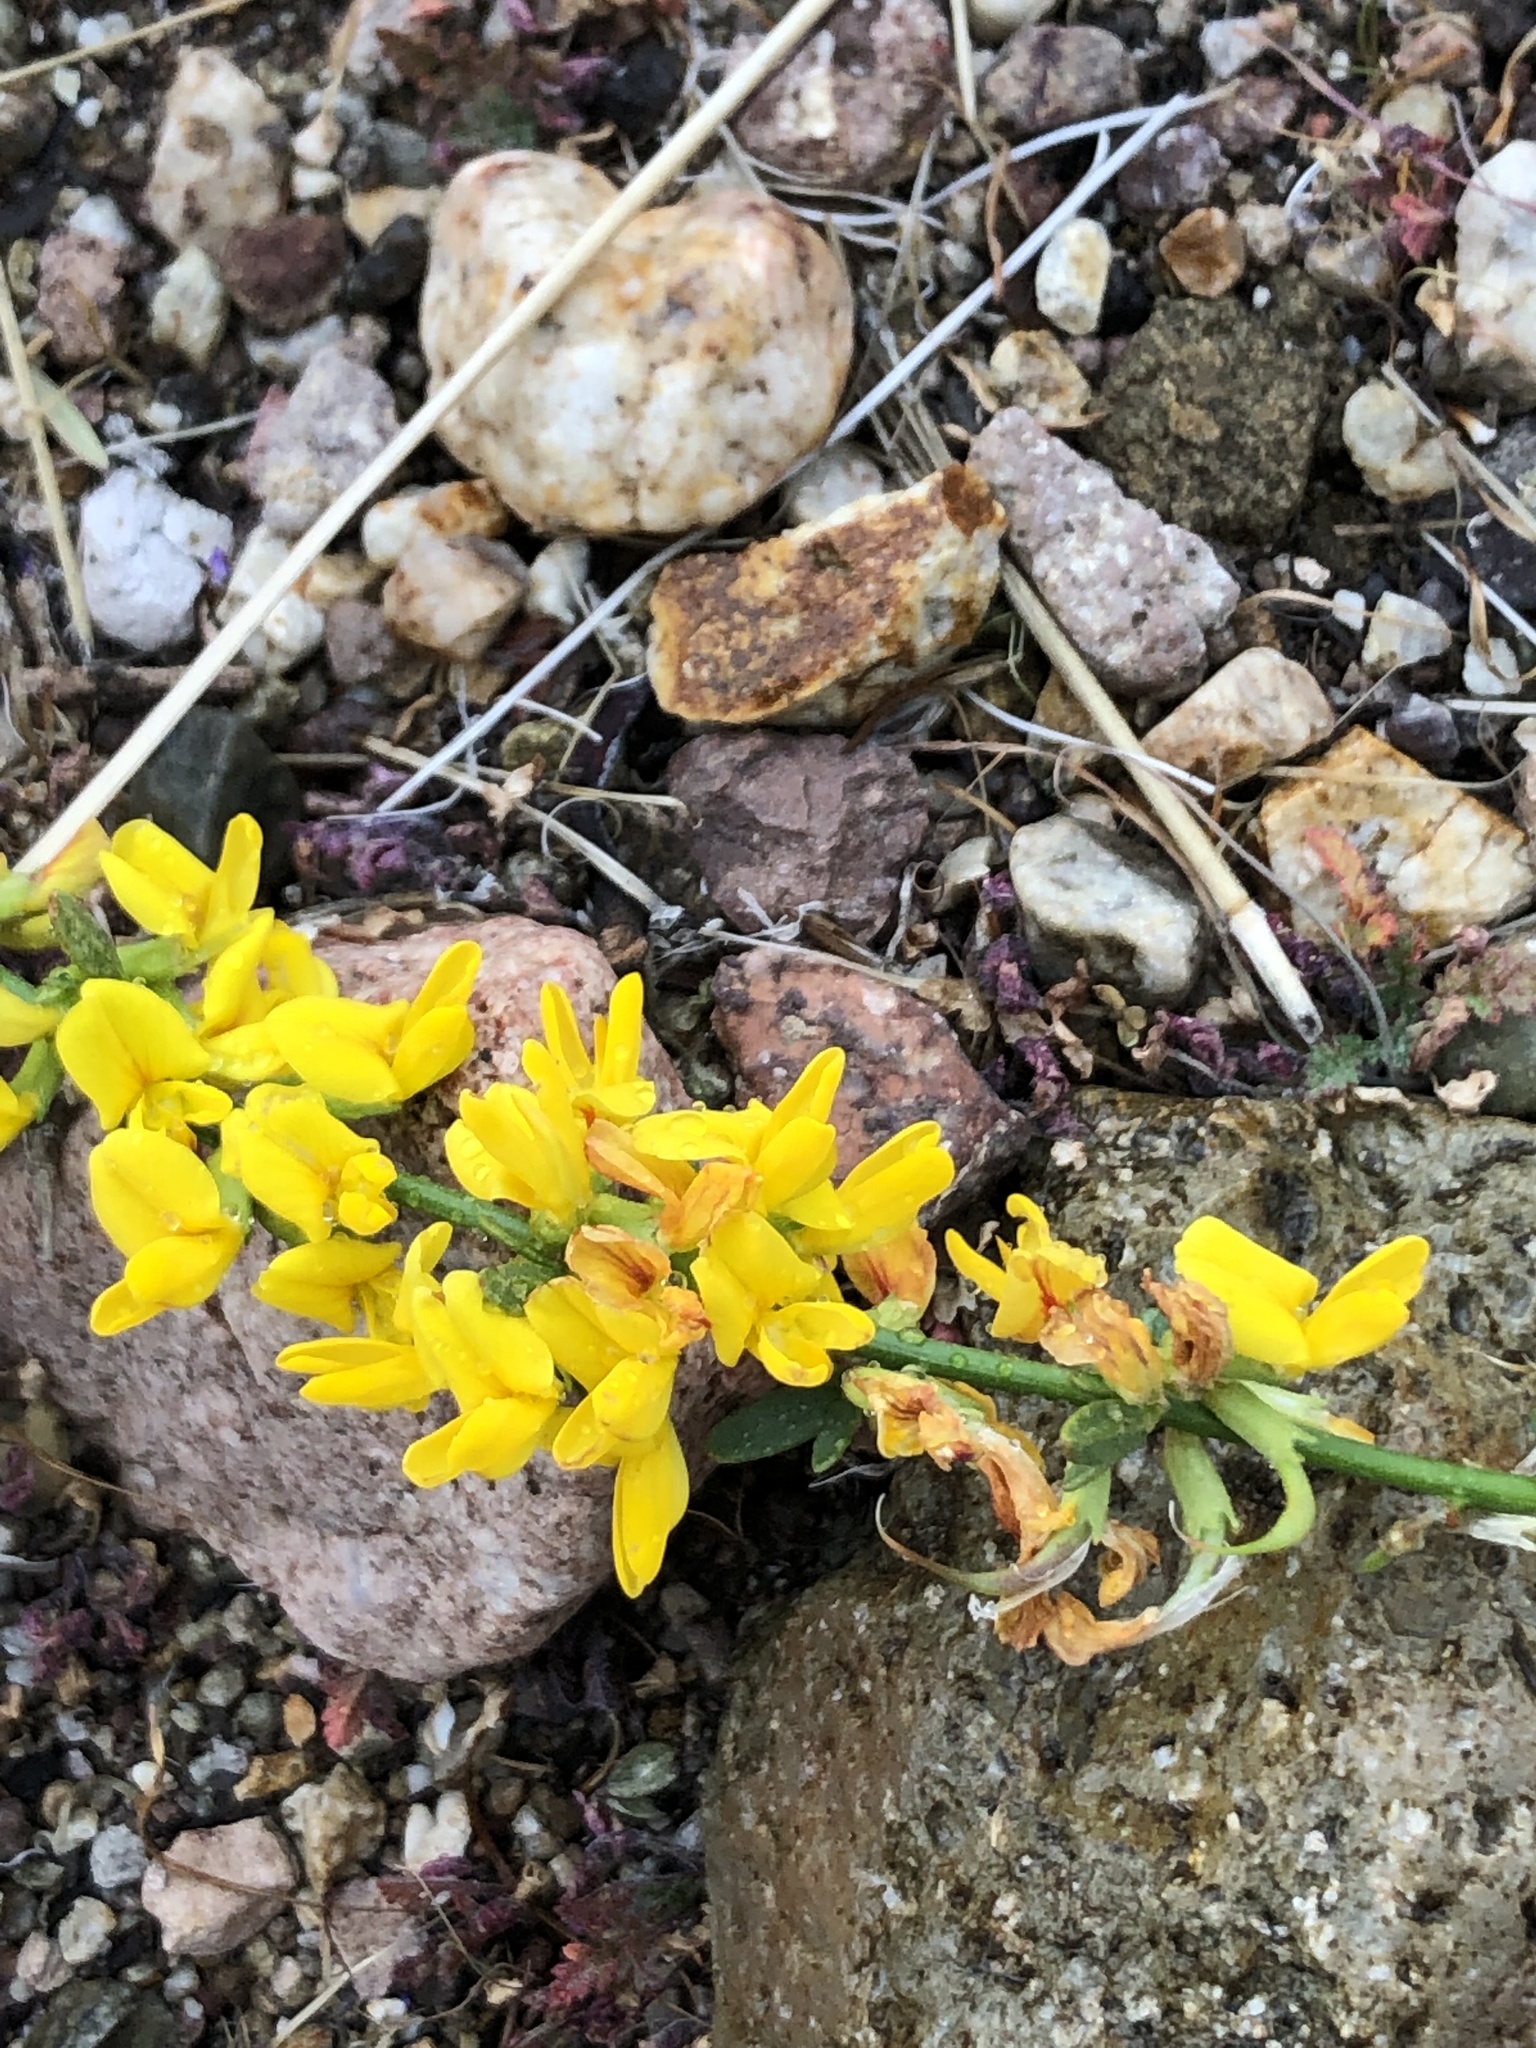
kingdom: Plantae
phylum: Tracheophyta
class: Magnoliopsida
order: Fabales
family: Fabaceae
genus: Acmispon
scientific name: Acmispon glaber
